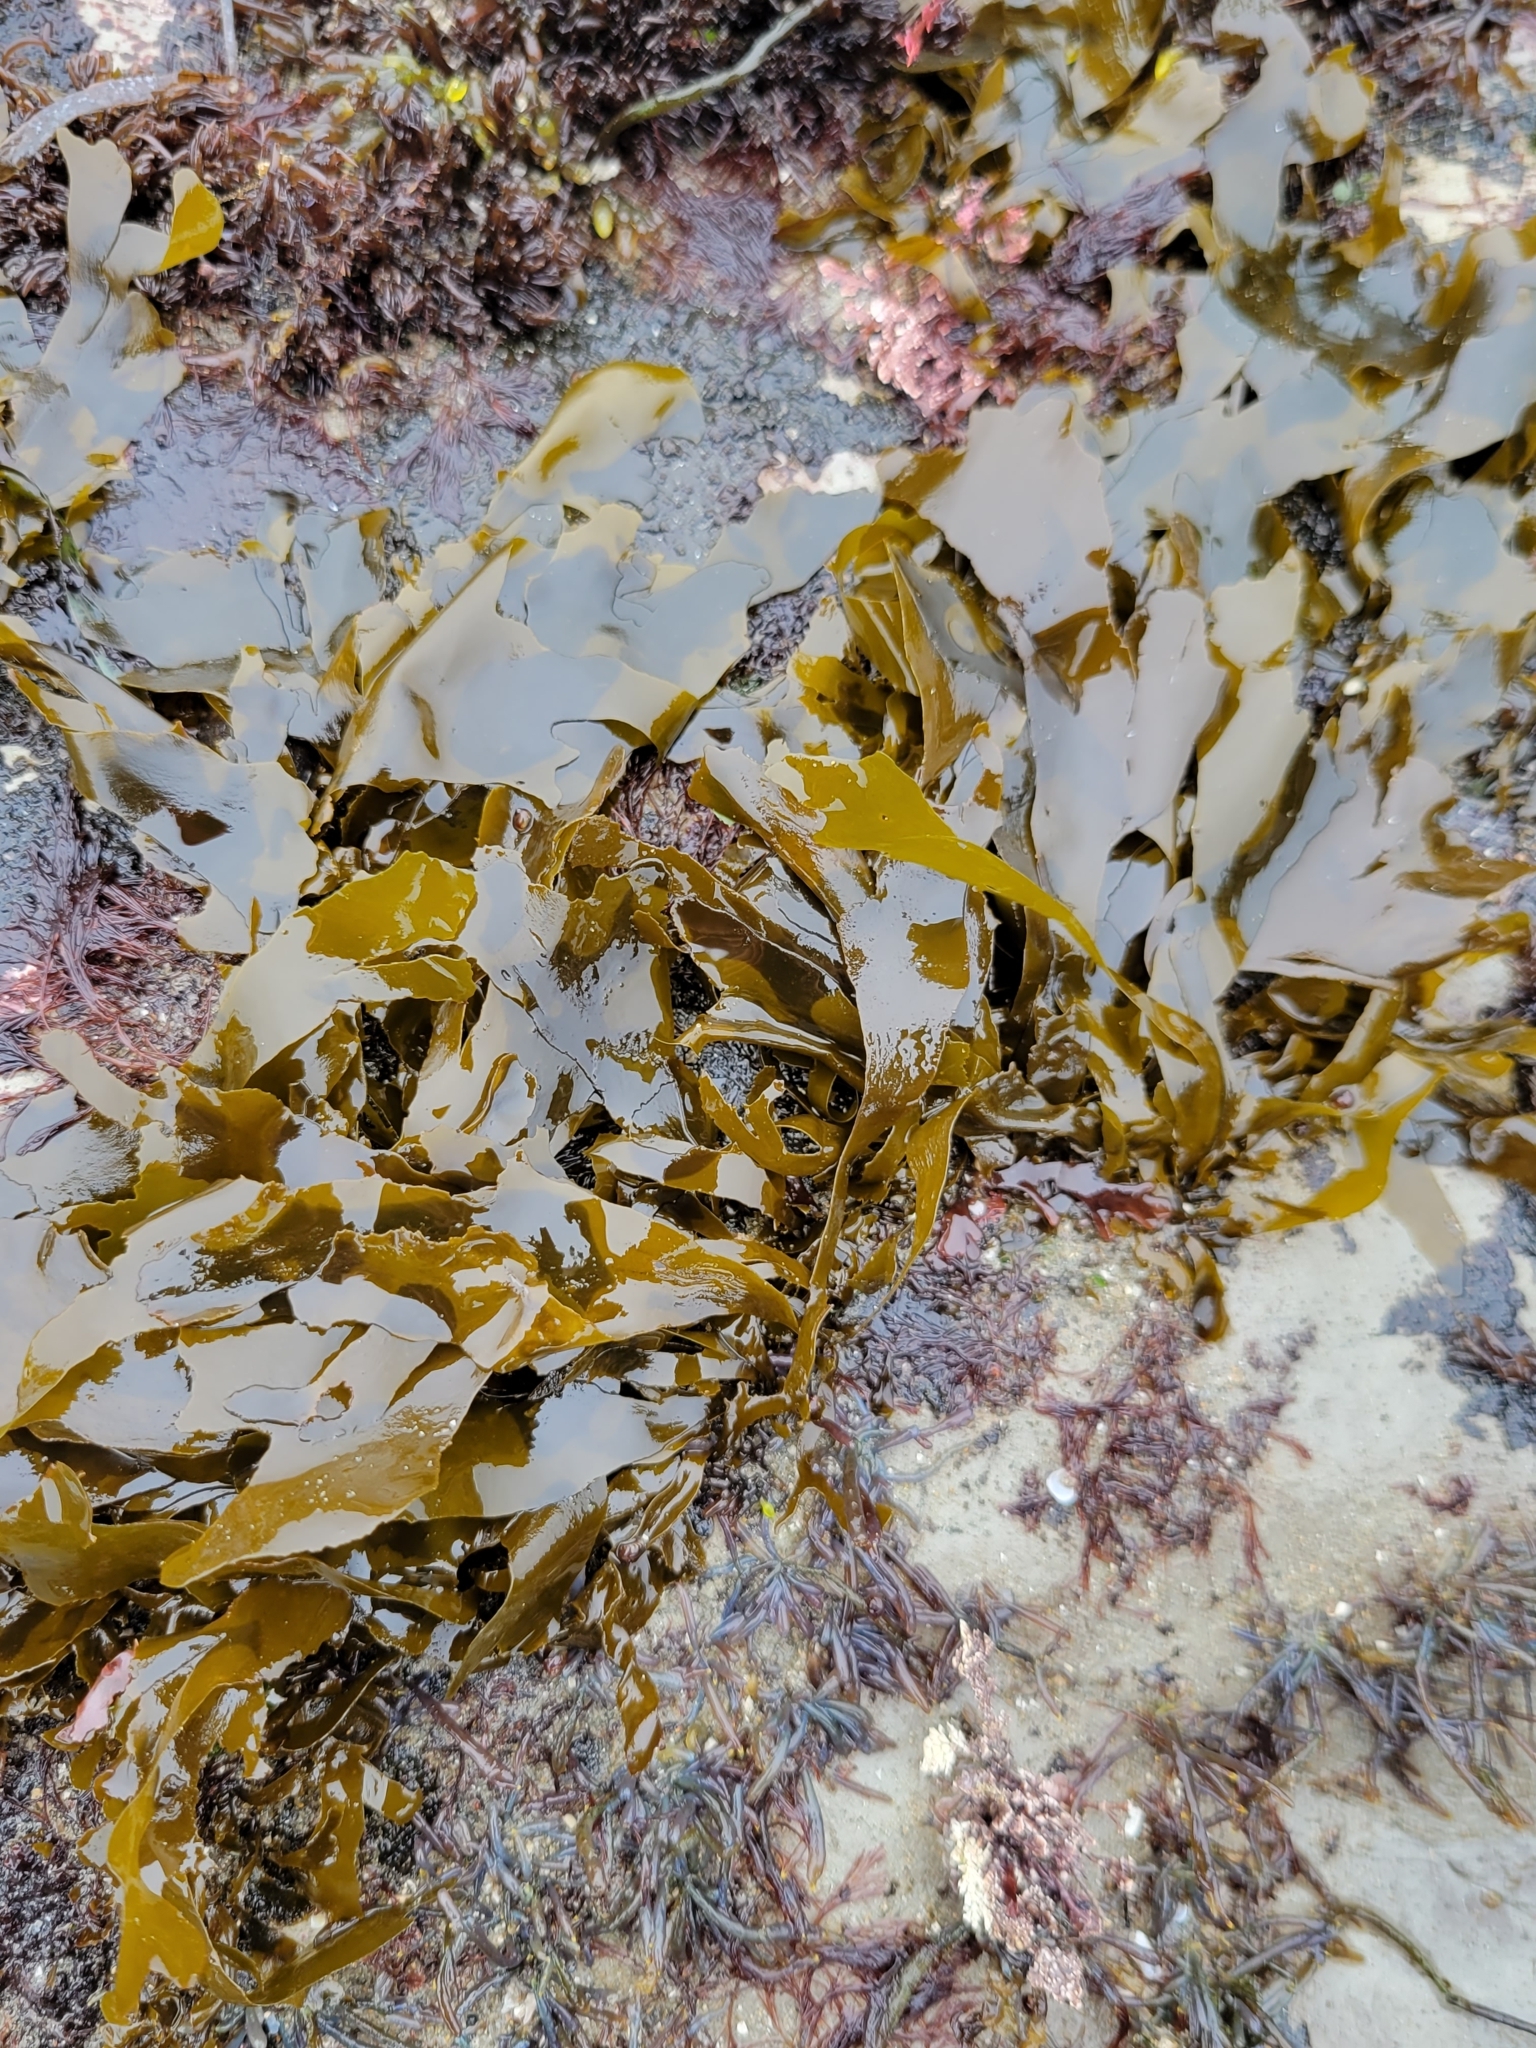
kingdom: Chromista
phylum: Ochrophyta
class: Phaeophyceae
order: Laminariales
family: Laminariaceae
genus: Phaeostrophion
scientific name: Phaeostrophion irregulare
